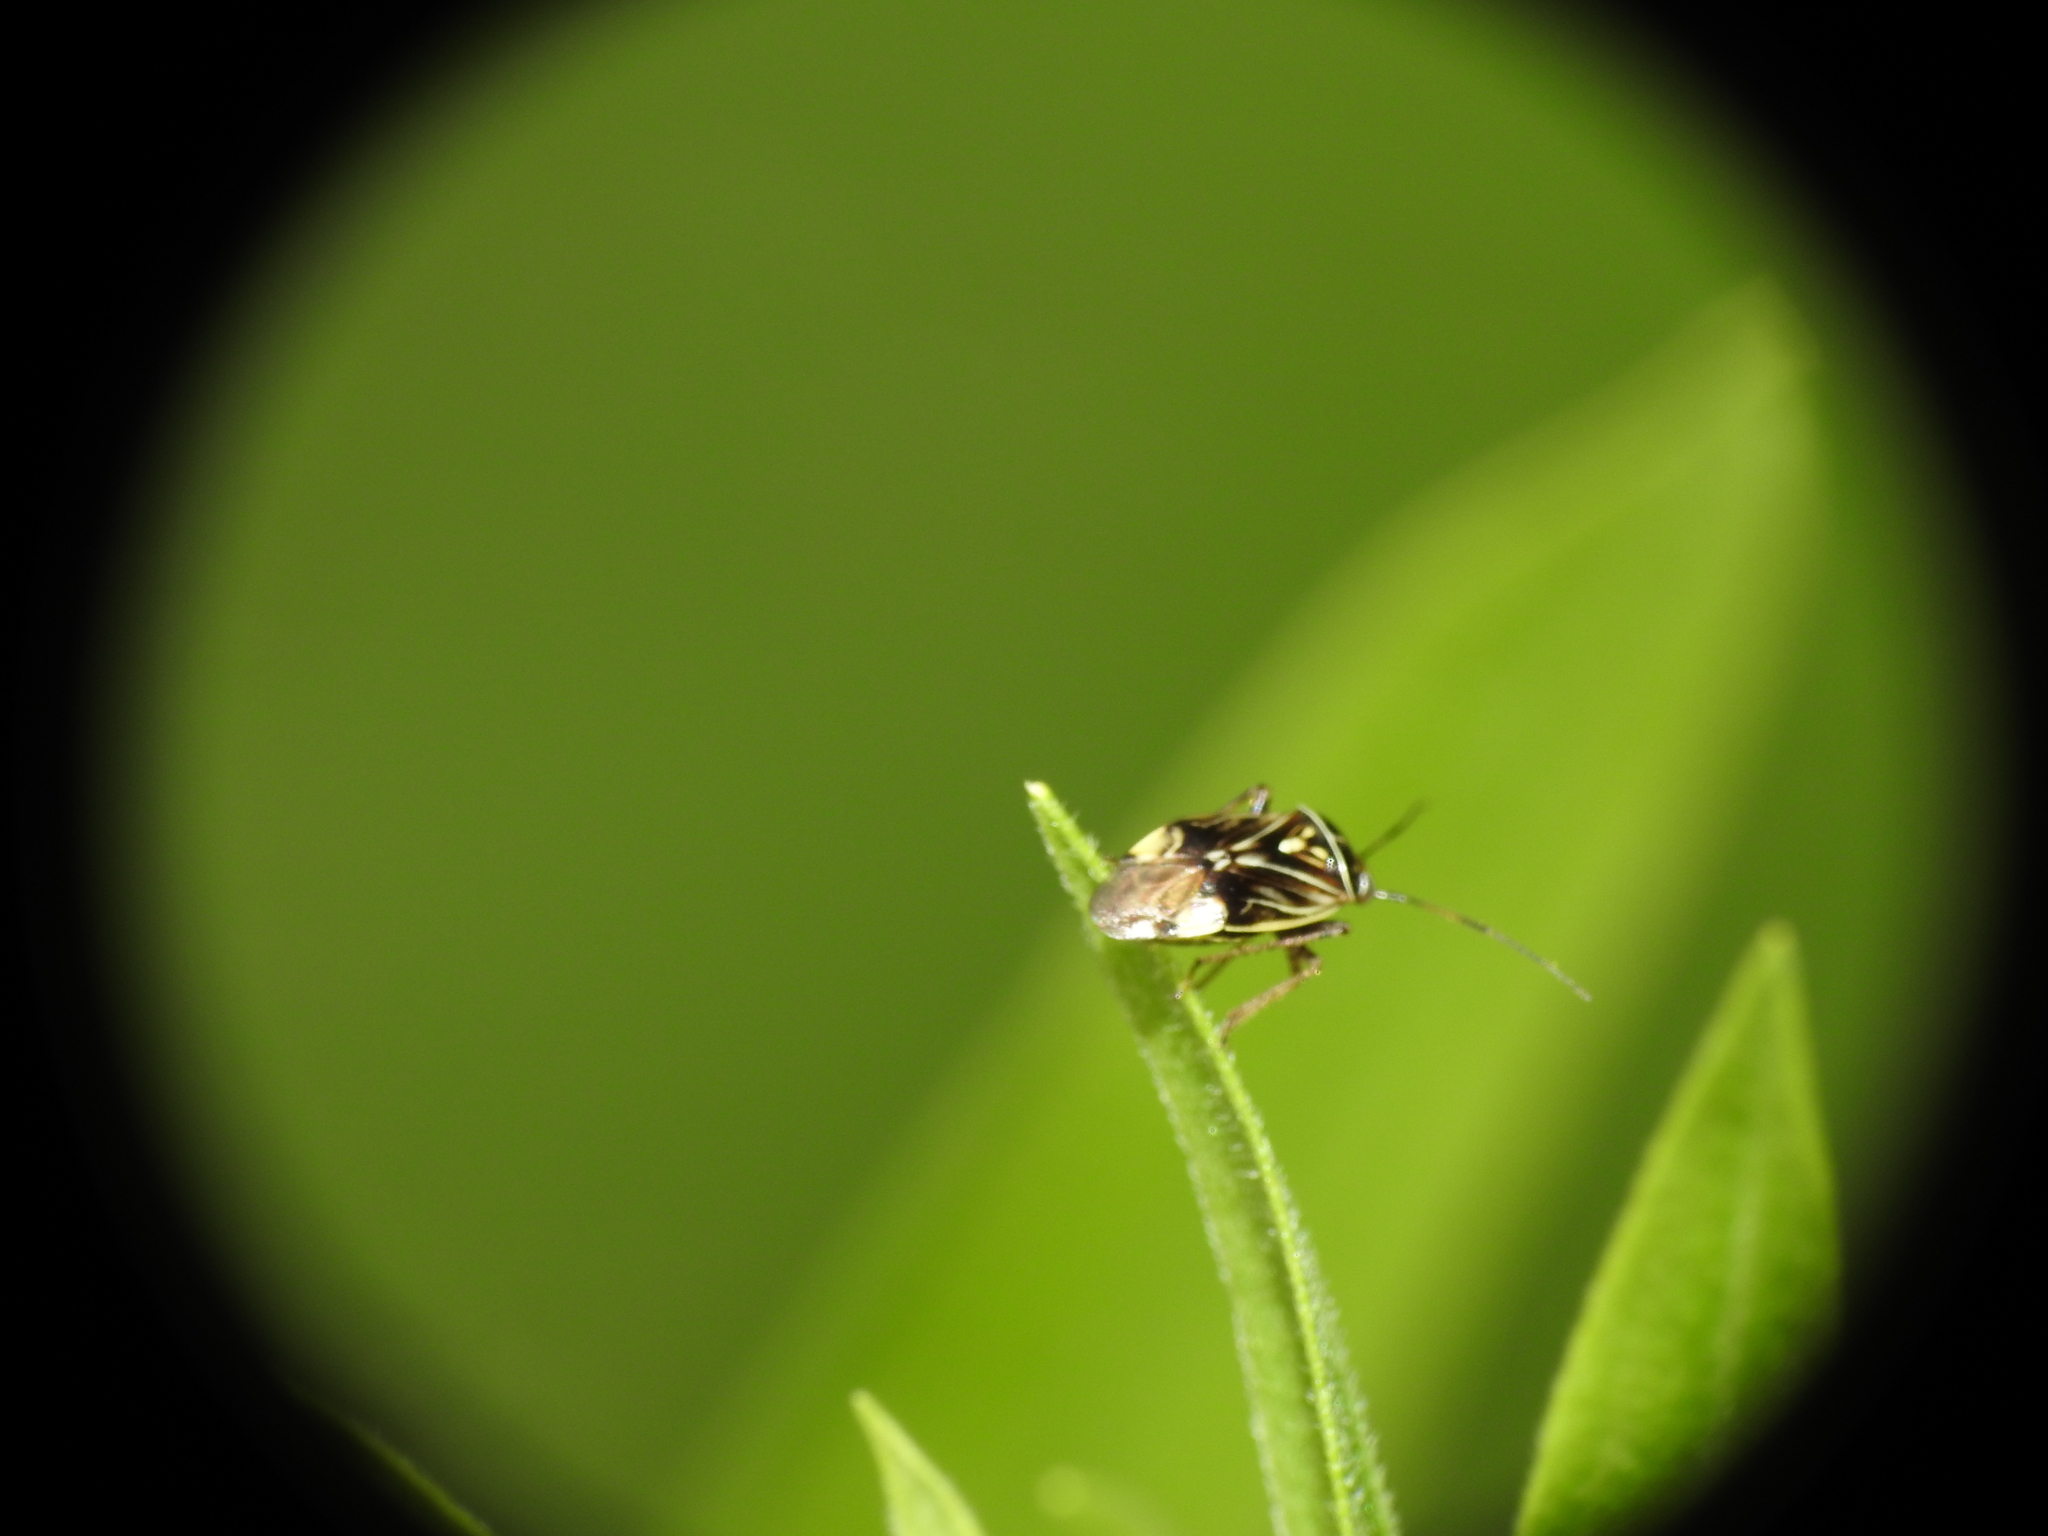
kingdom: Animalia
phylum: Arthropoda
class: Insecta
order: Hemiptera
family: Miridae
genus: Lygus
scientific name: Lygus lineolaris
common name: North american tarnished plant bug
